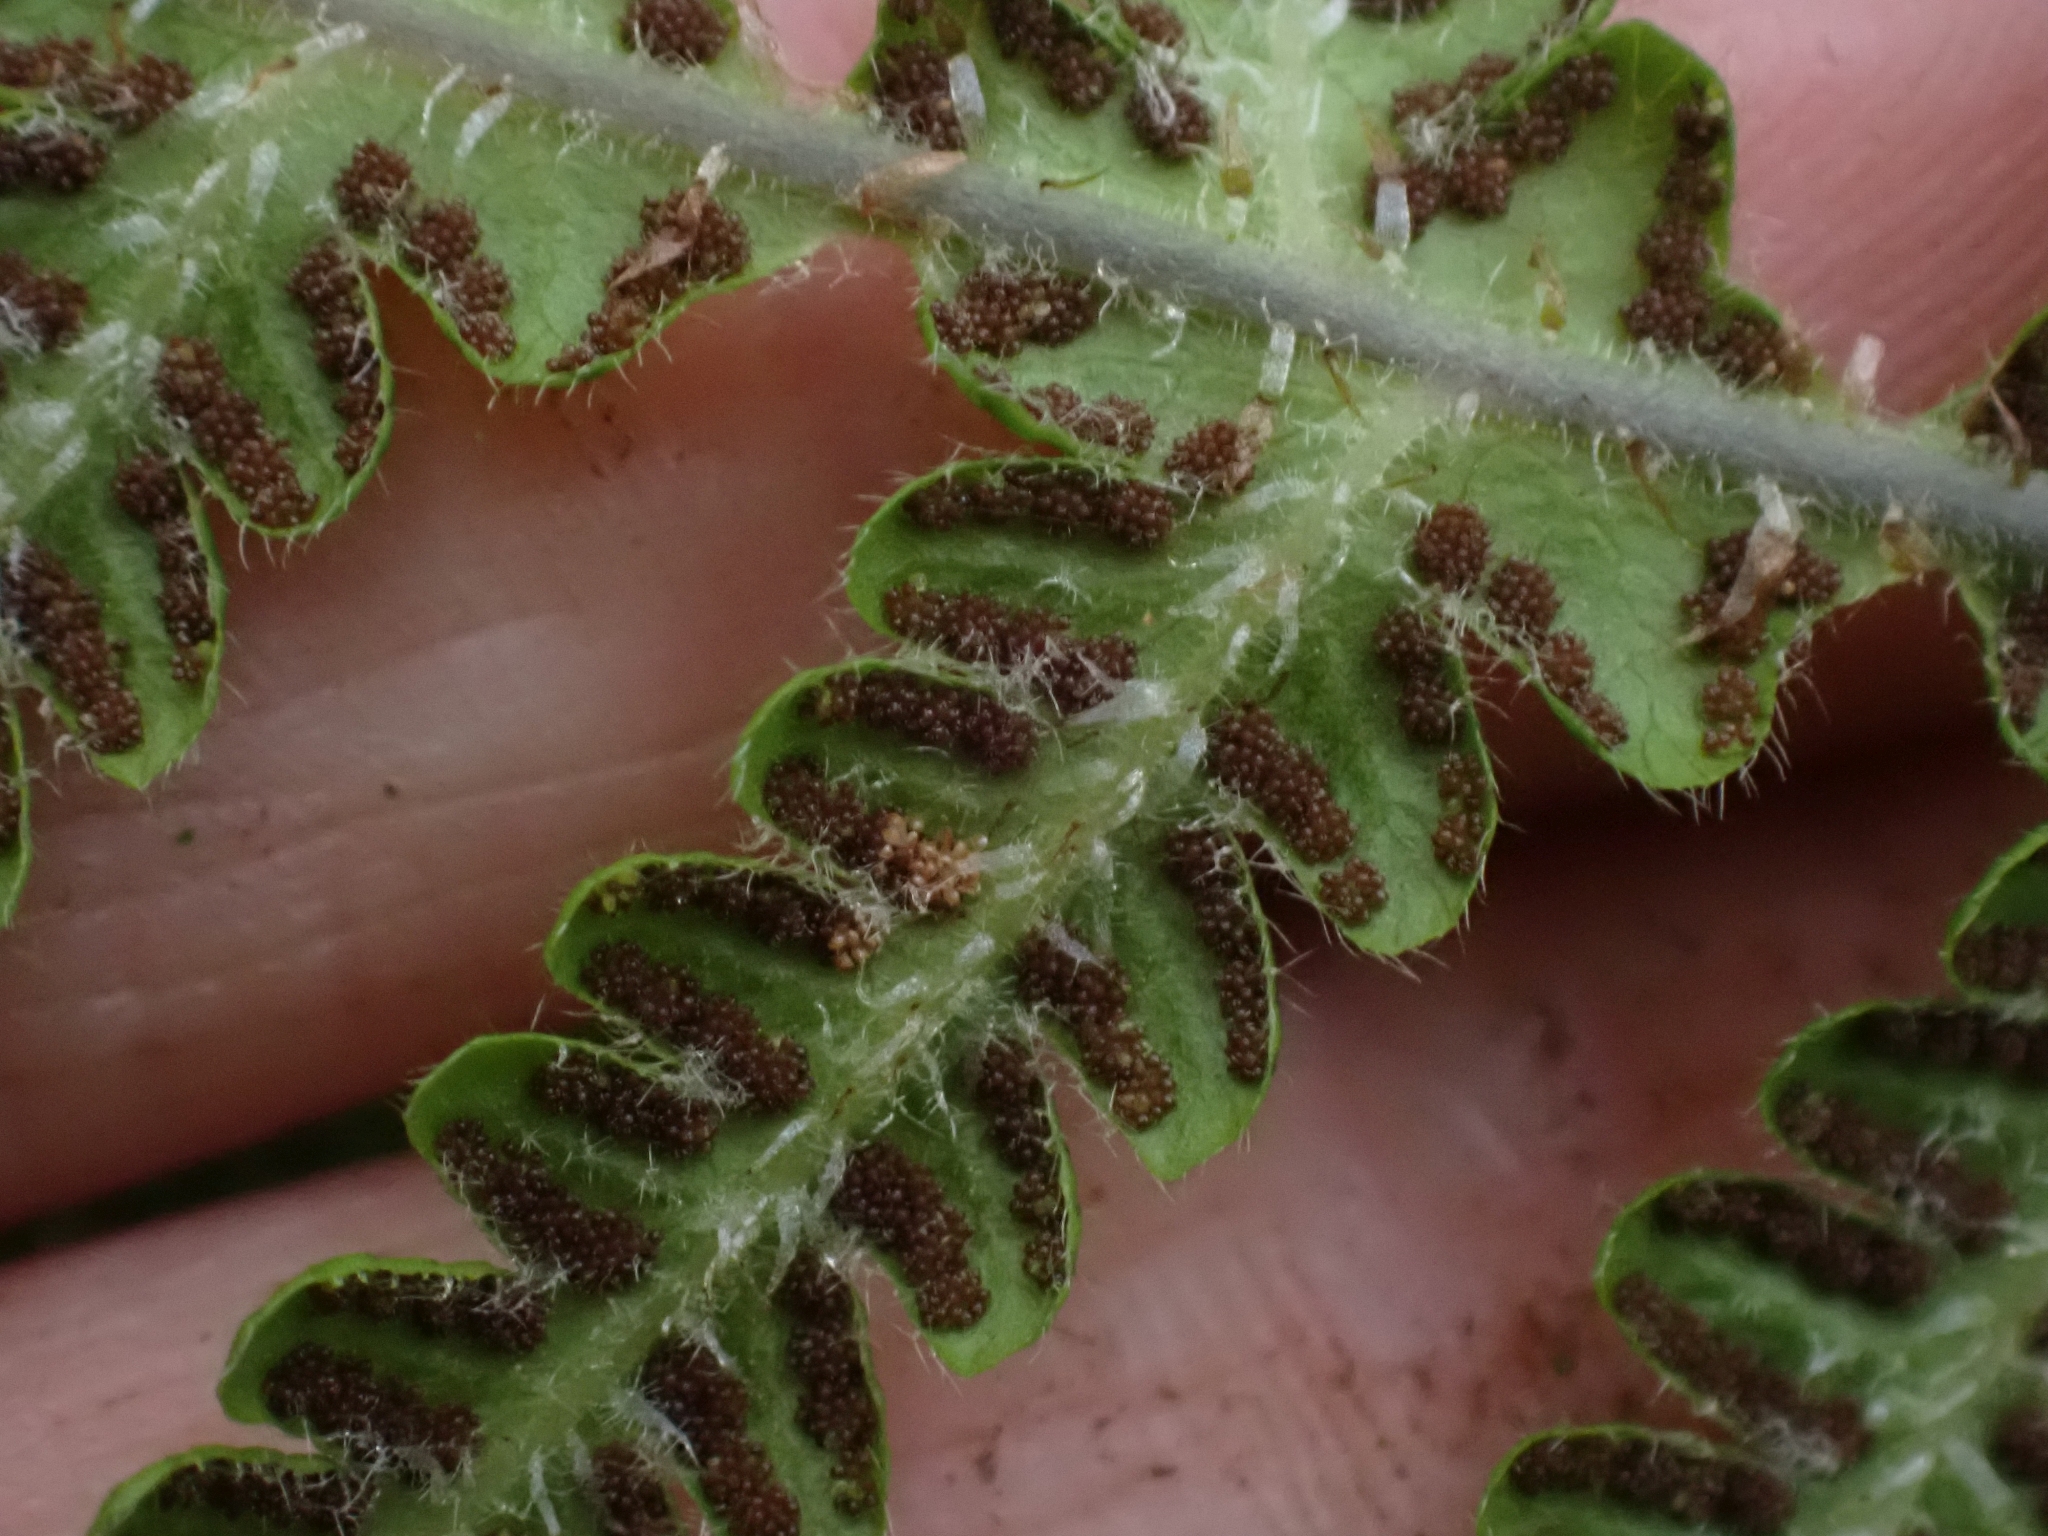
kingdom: Plantae
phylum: Tracheophyta
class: Polypodiopsida
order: Polypodiales
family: Thelypteridaceae
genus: Phegopteris
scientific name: Phegopteris connectilis
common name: Beech fern
